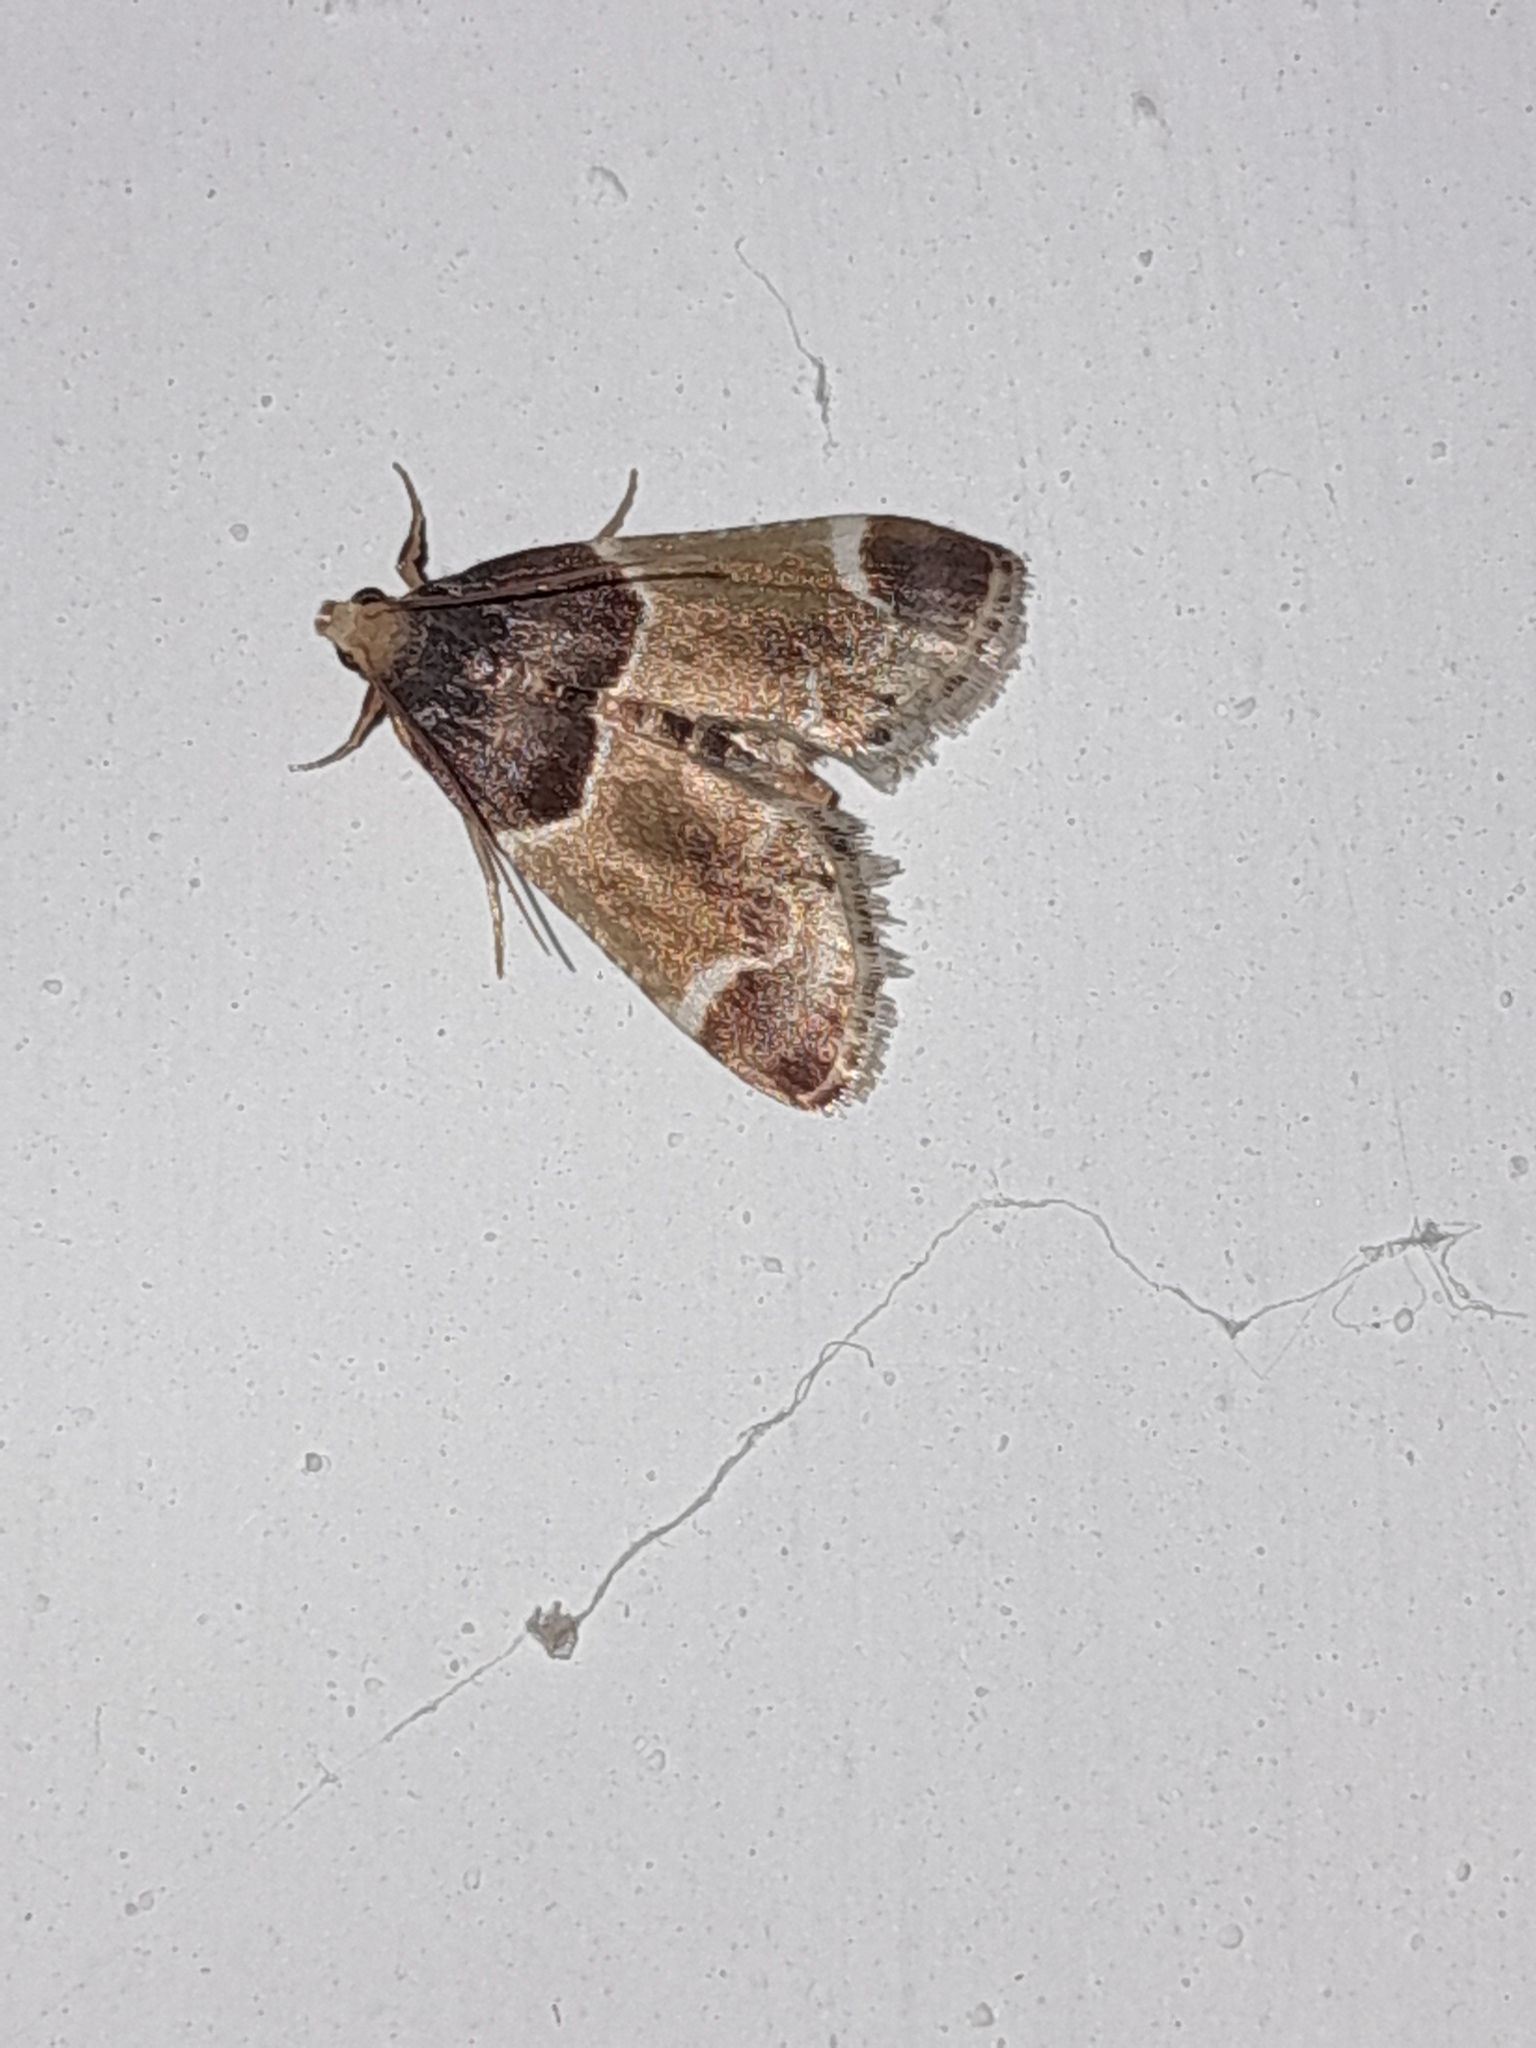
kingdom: Animalia
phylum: Arthropoda
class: Insecta
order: Lepidoptera
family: Pyralidae
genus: Pyralis
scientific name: Pyralis farinalis
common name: Meal moth
